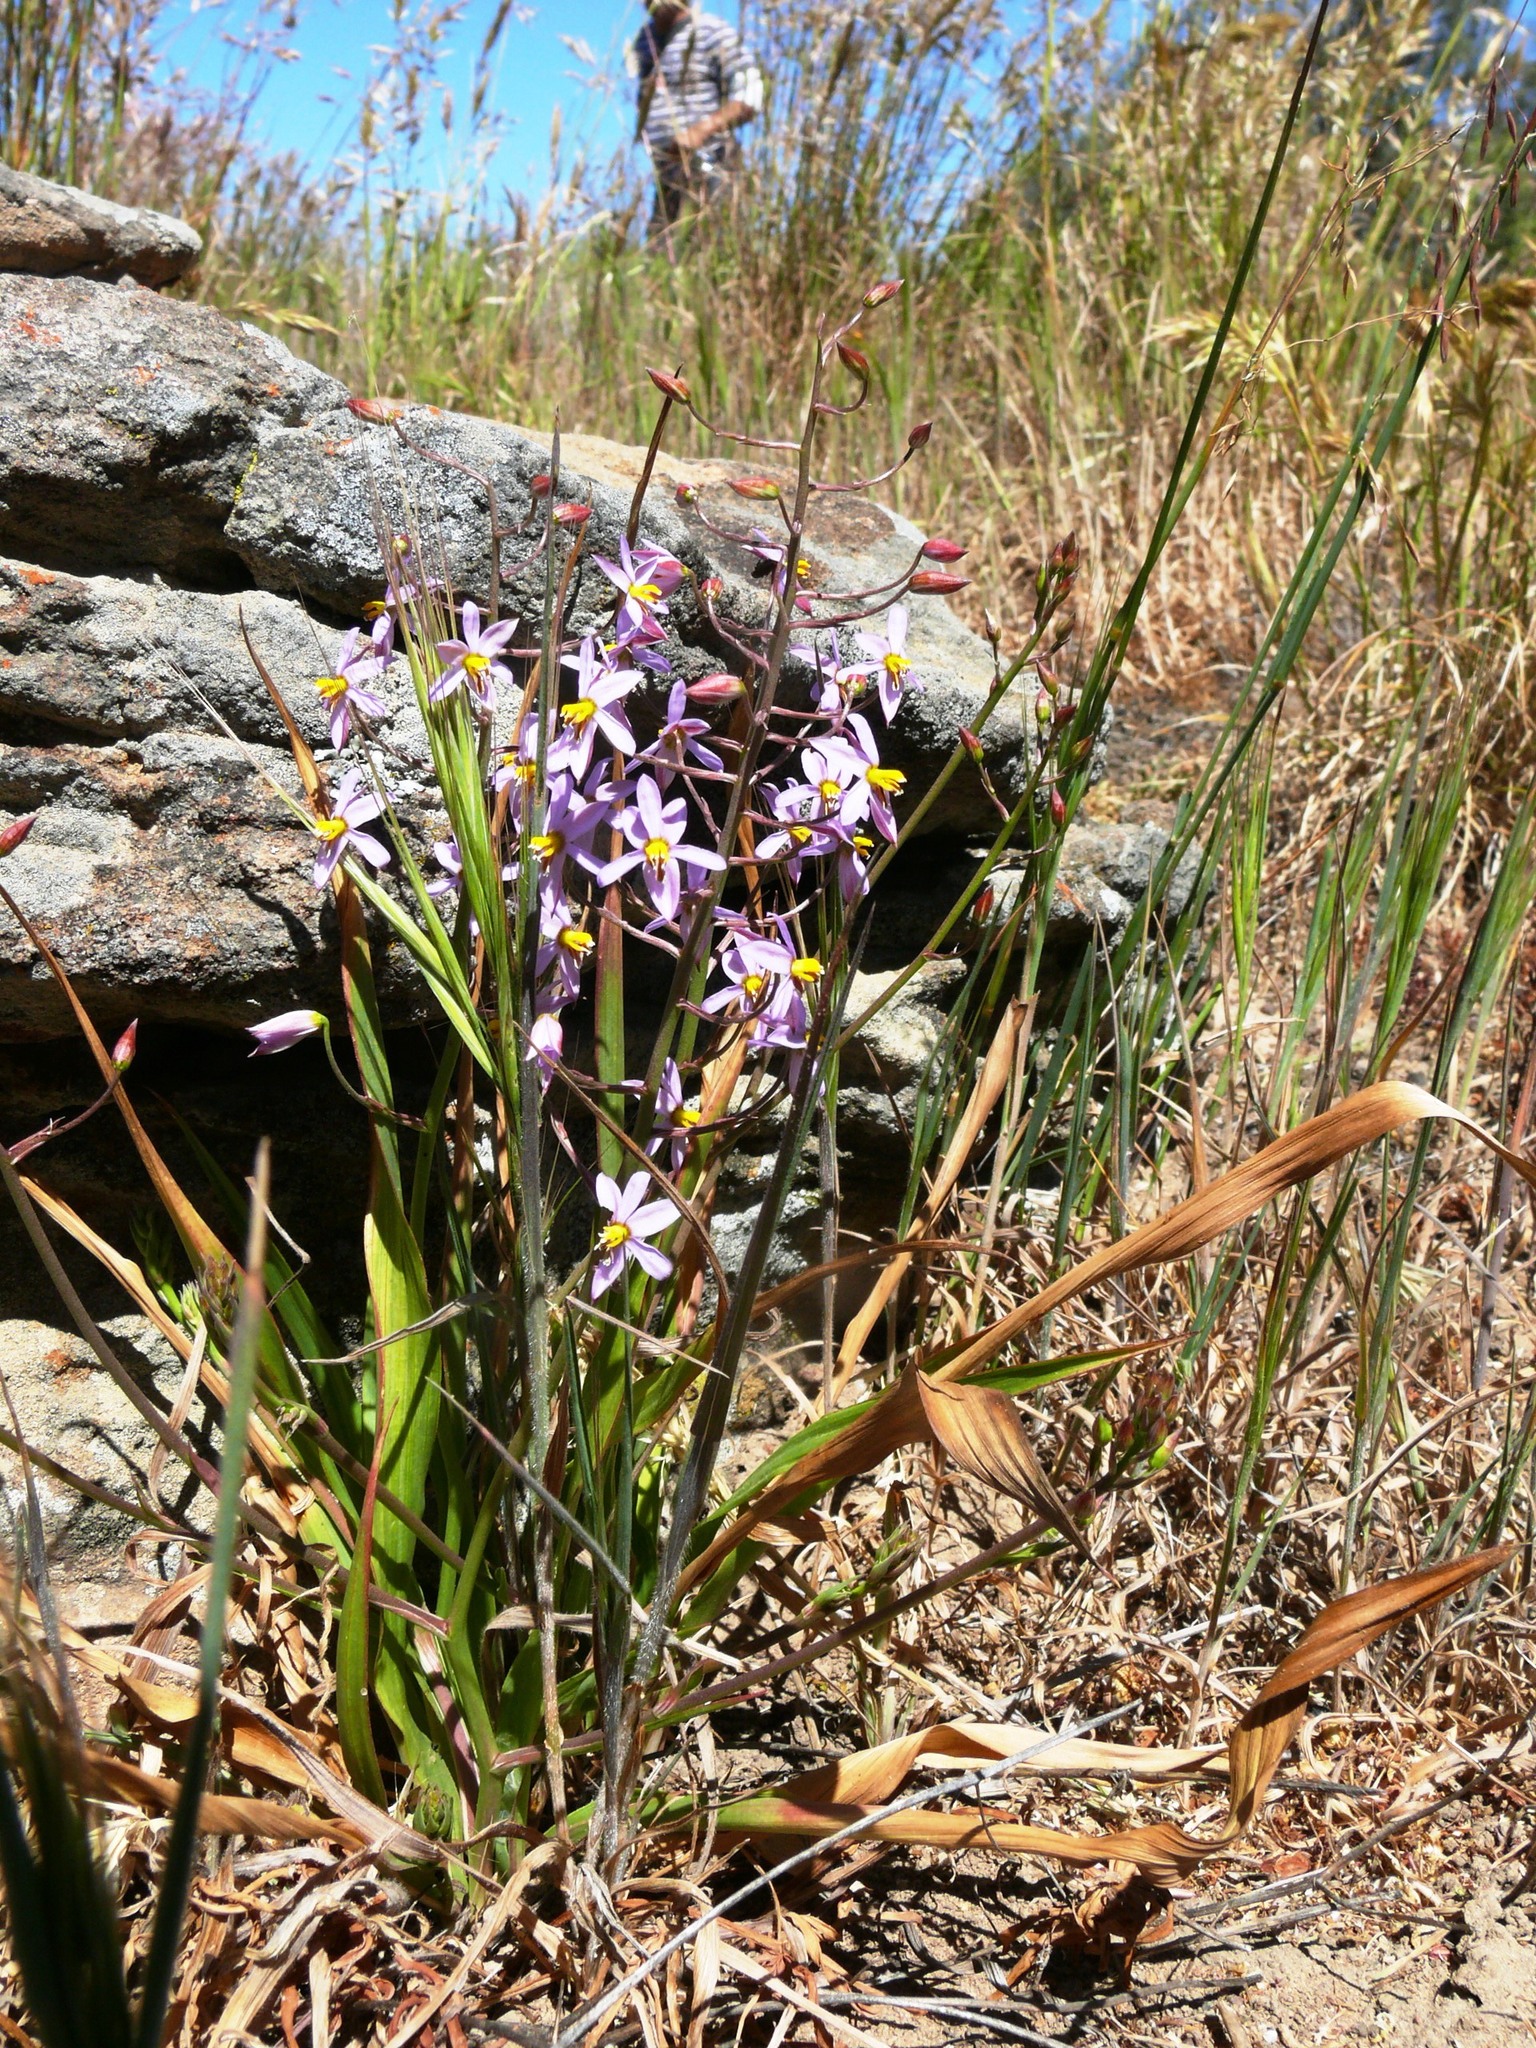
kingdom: Plantae
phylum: Tracheophyta
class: Liliopsida
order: Asparagales
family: Tecophilaeaceae
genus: Cyanella
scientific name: Cyanella orchidiformis
